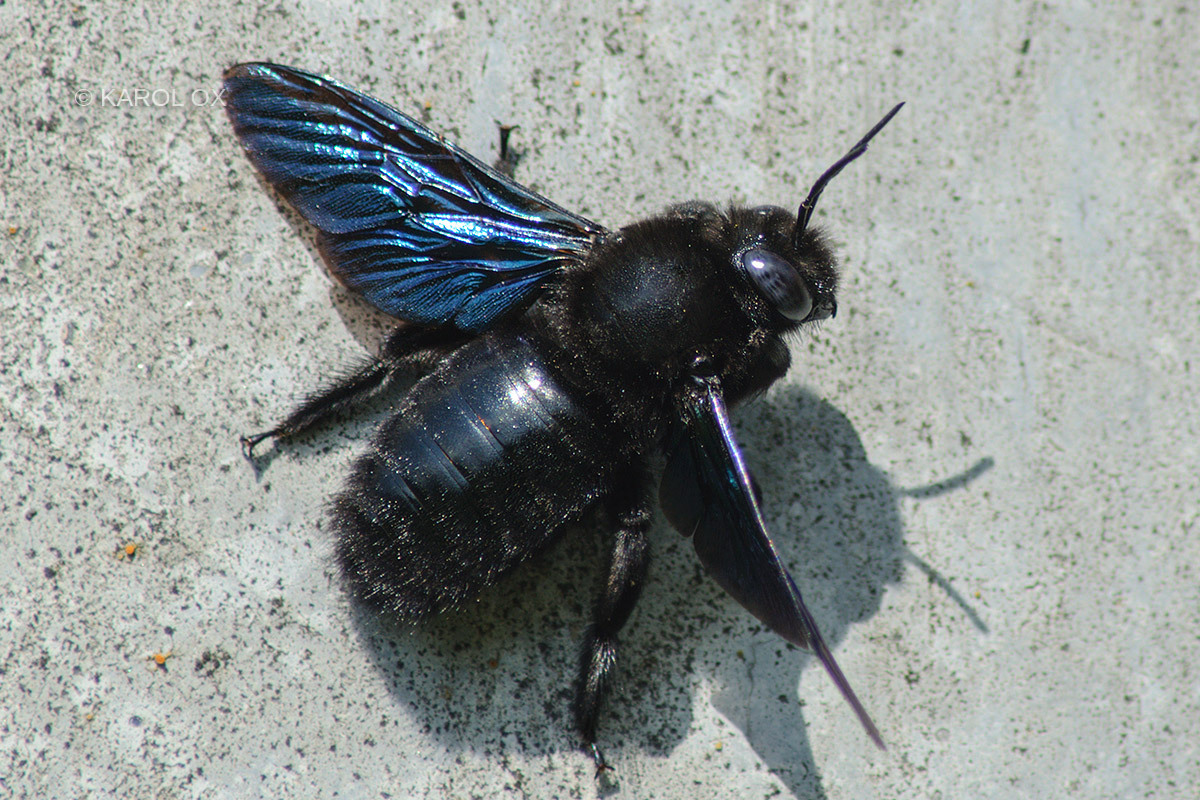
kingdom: Animalia
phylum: Arthropoda
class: Insecta
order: Hymenoptera
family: Apidae
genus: Xylocopa
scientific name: Xylocopa valga
